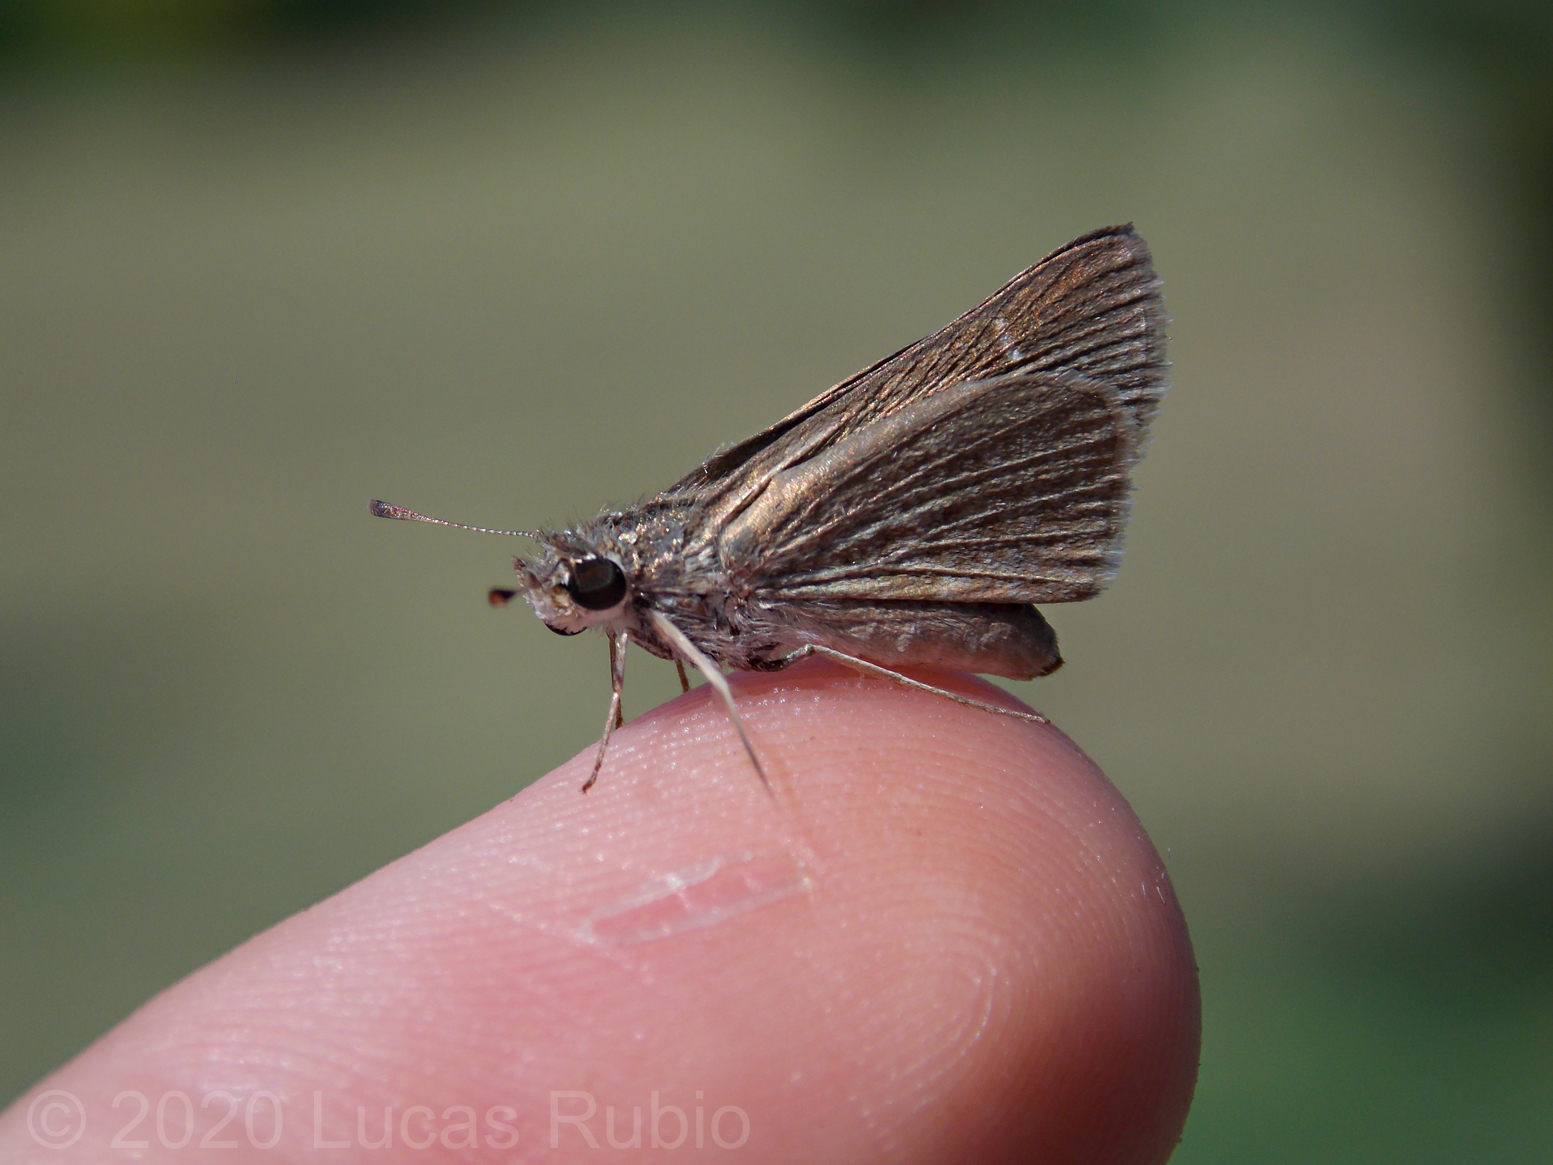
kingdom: Animalia
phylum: Arthropoda
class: Insecta
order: Lepidoptera
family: Hesperiidae
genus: Lerodea
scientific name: Lerodea eufala
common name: Eufala skipper
